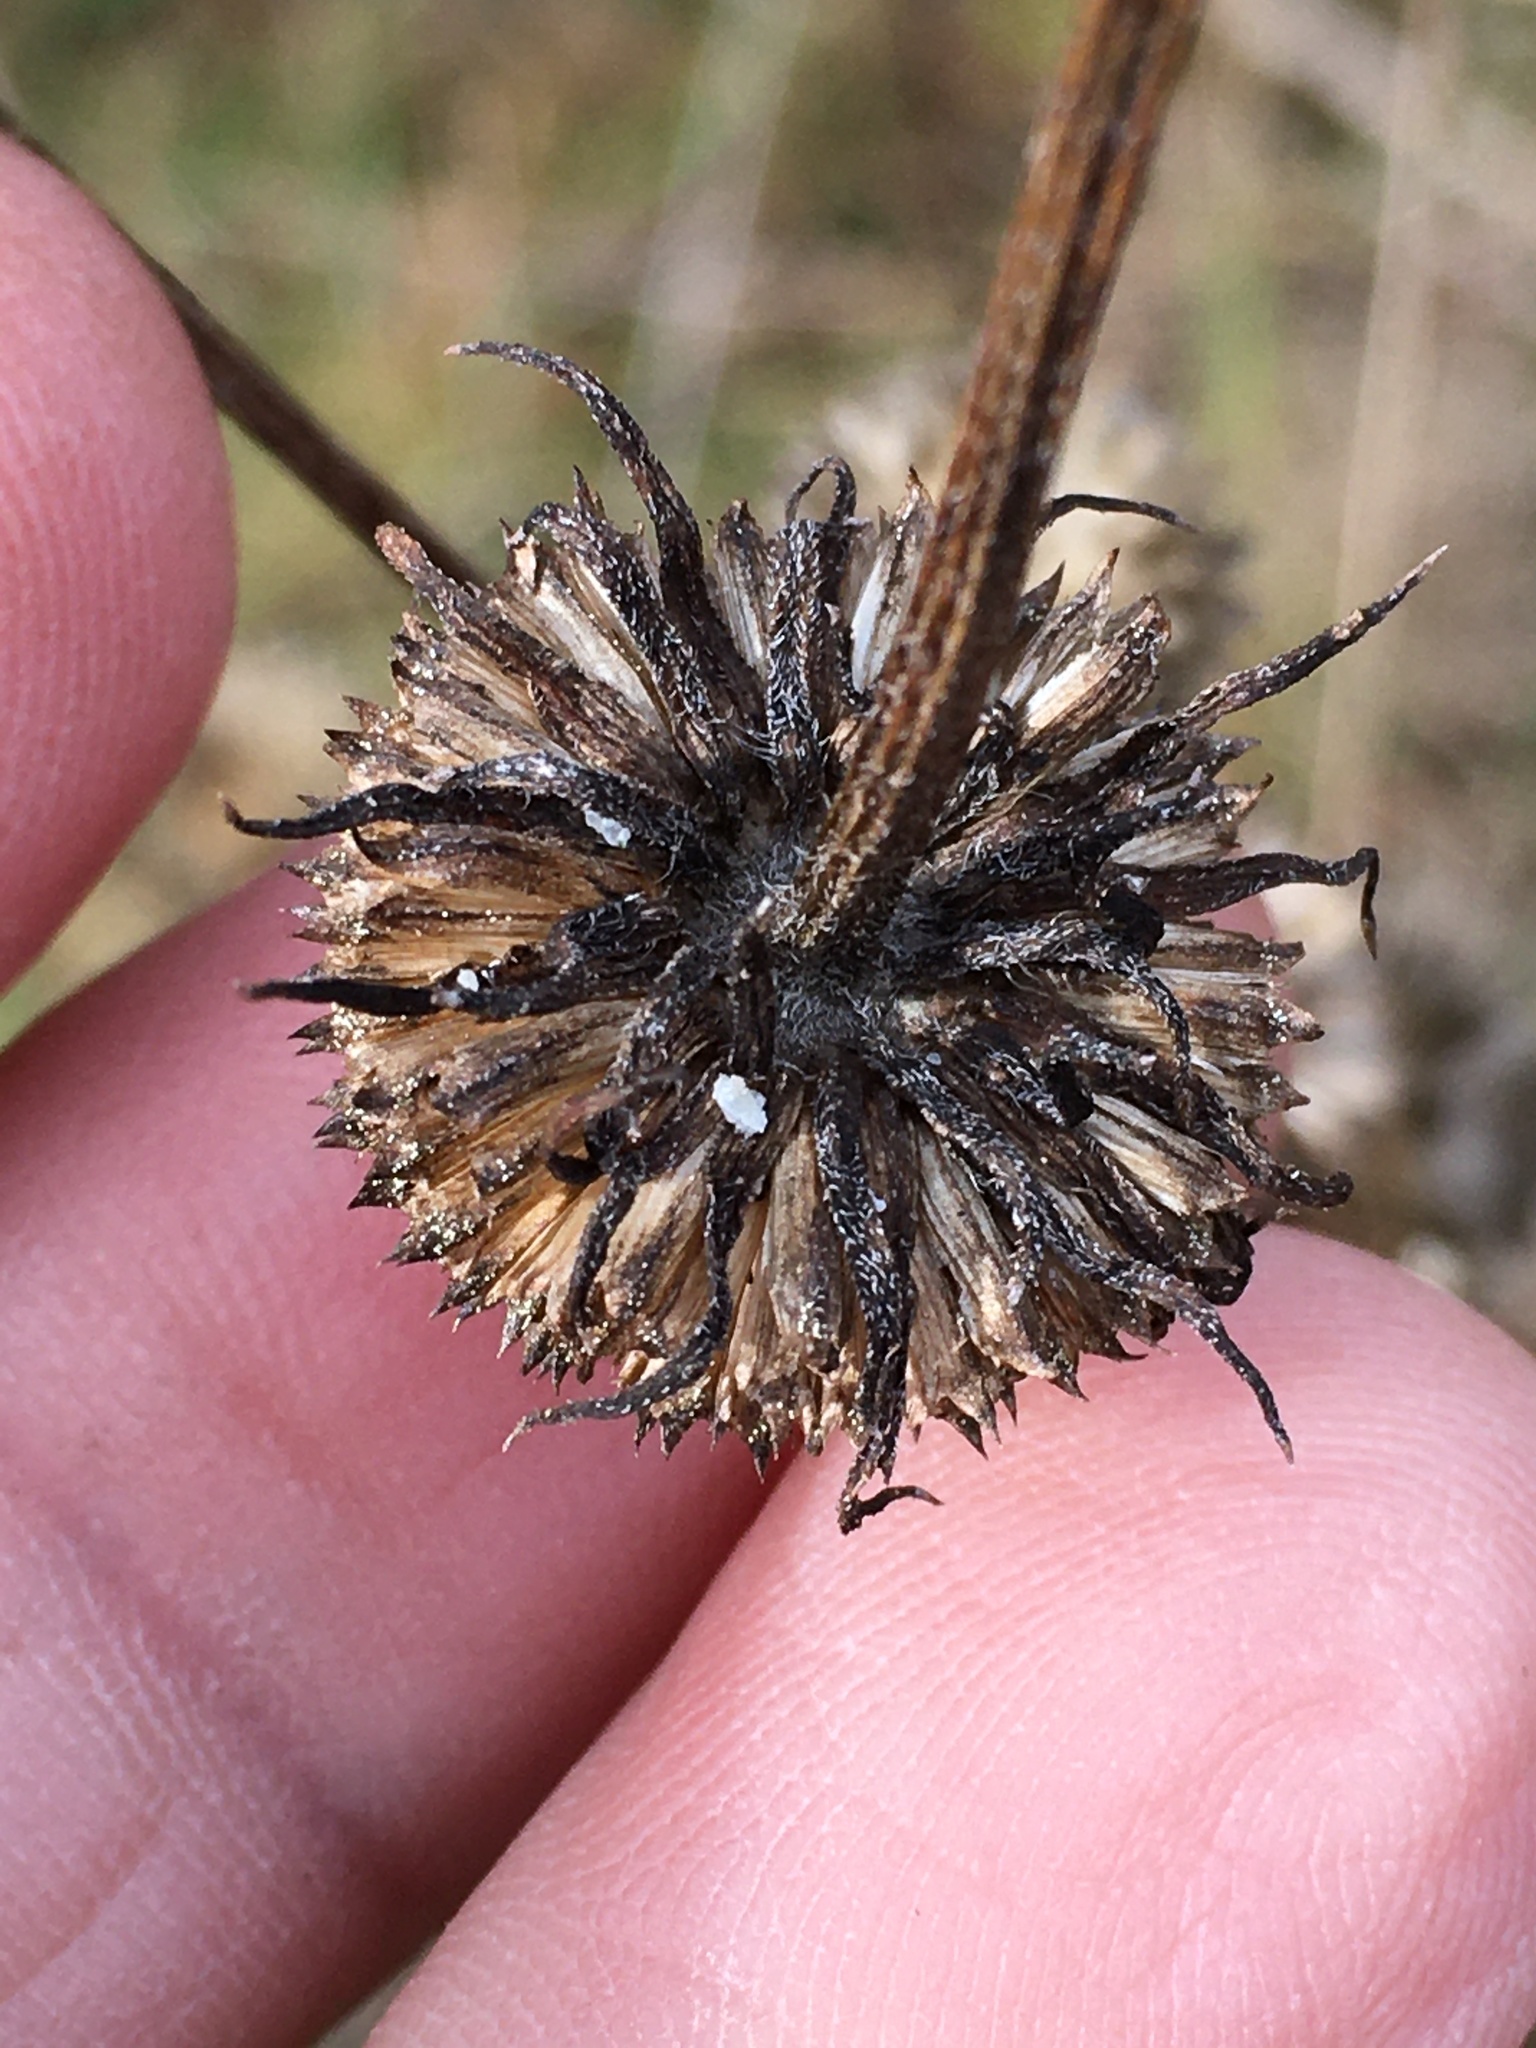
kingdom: Plantae
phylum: Tracheophyta
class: Magnoliopsida
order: Asterales
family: Asteraceae
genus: Helianthus
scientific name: Helianthus angustifolius
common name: Swamp sunflower
